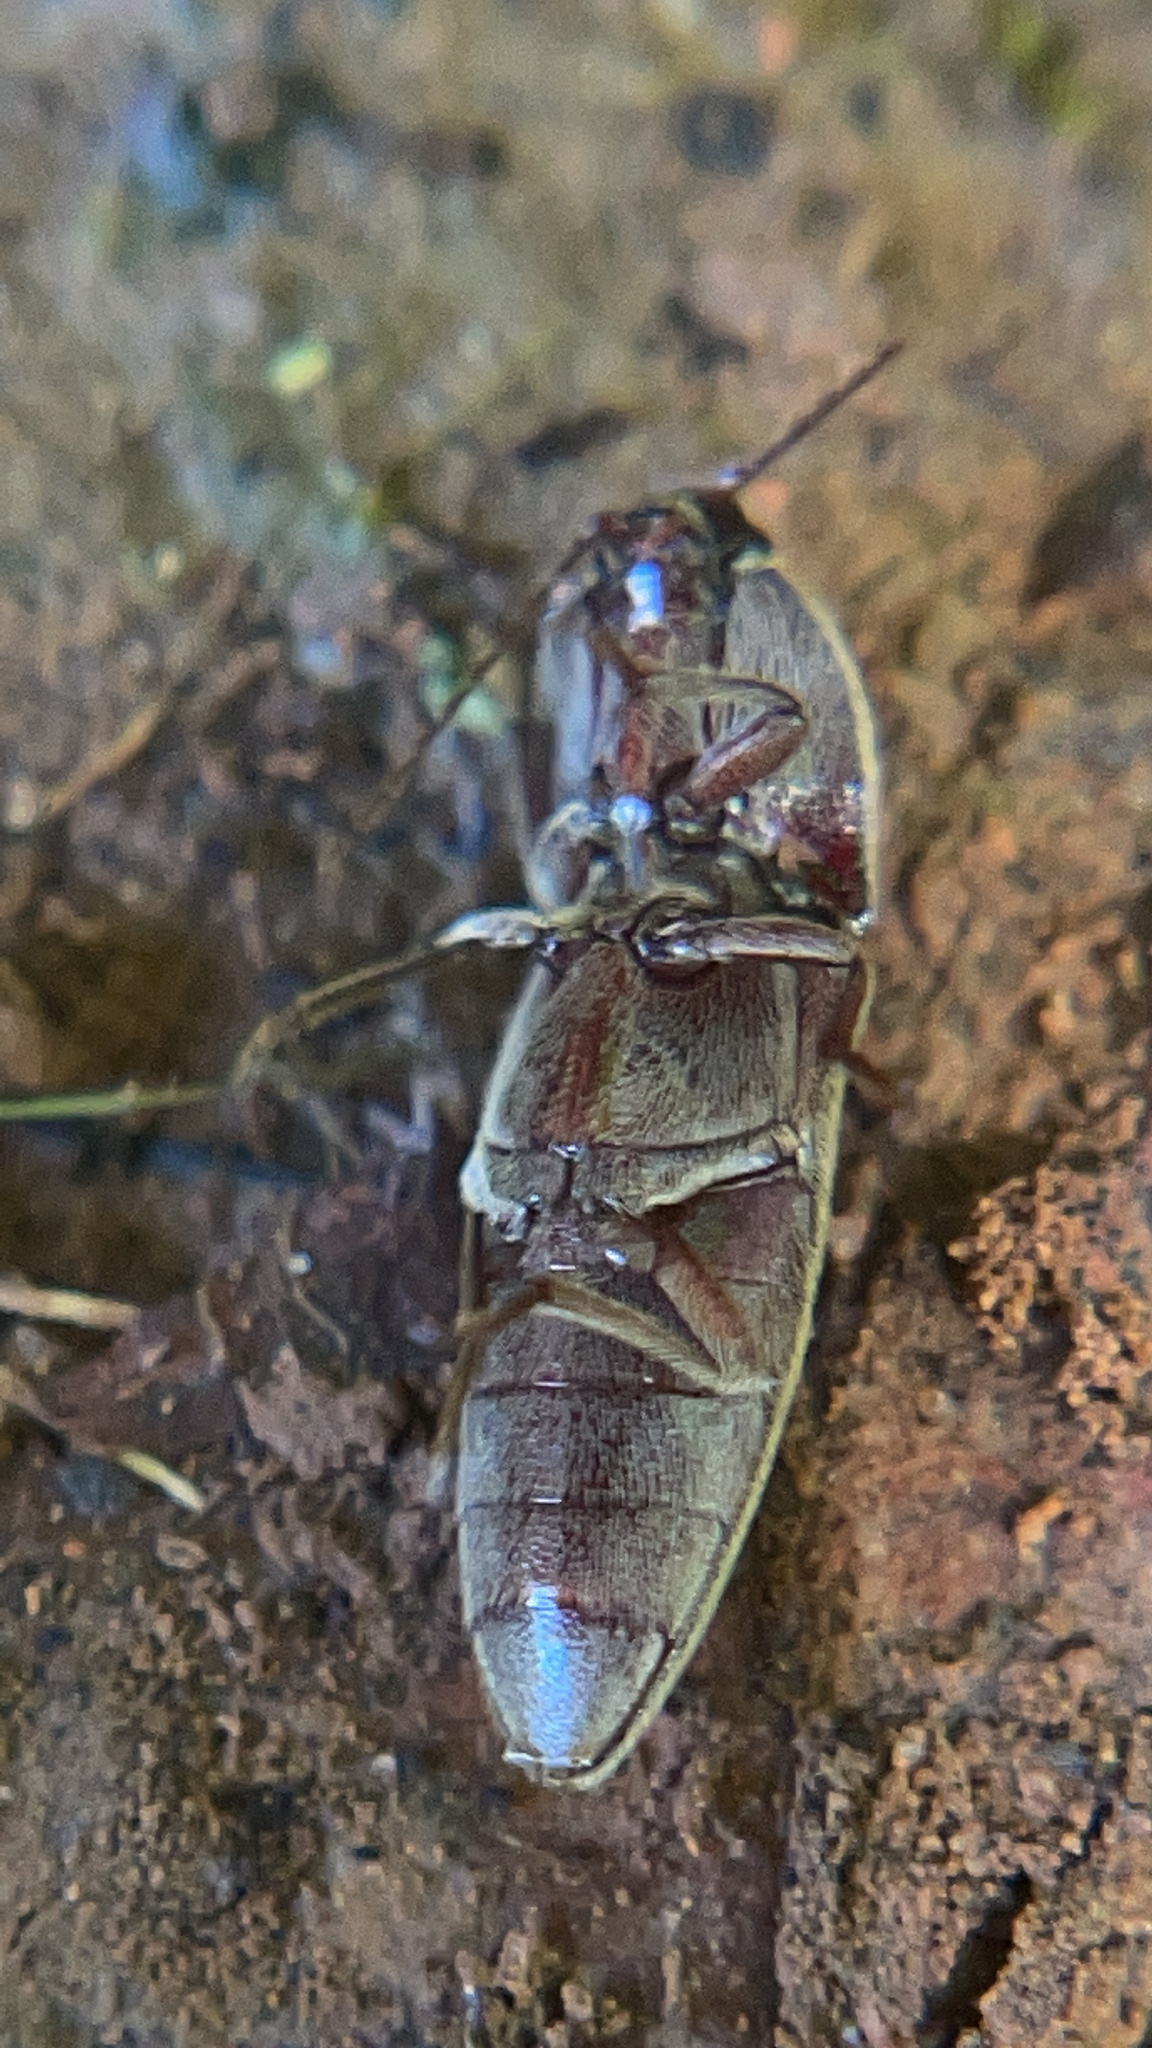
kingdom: Animalia
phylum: Arthropoda
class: Insecta
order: Coleoptera
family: Elateridae
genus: Melanotus
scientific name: Melanotus
